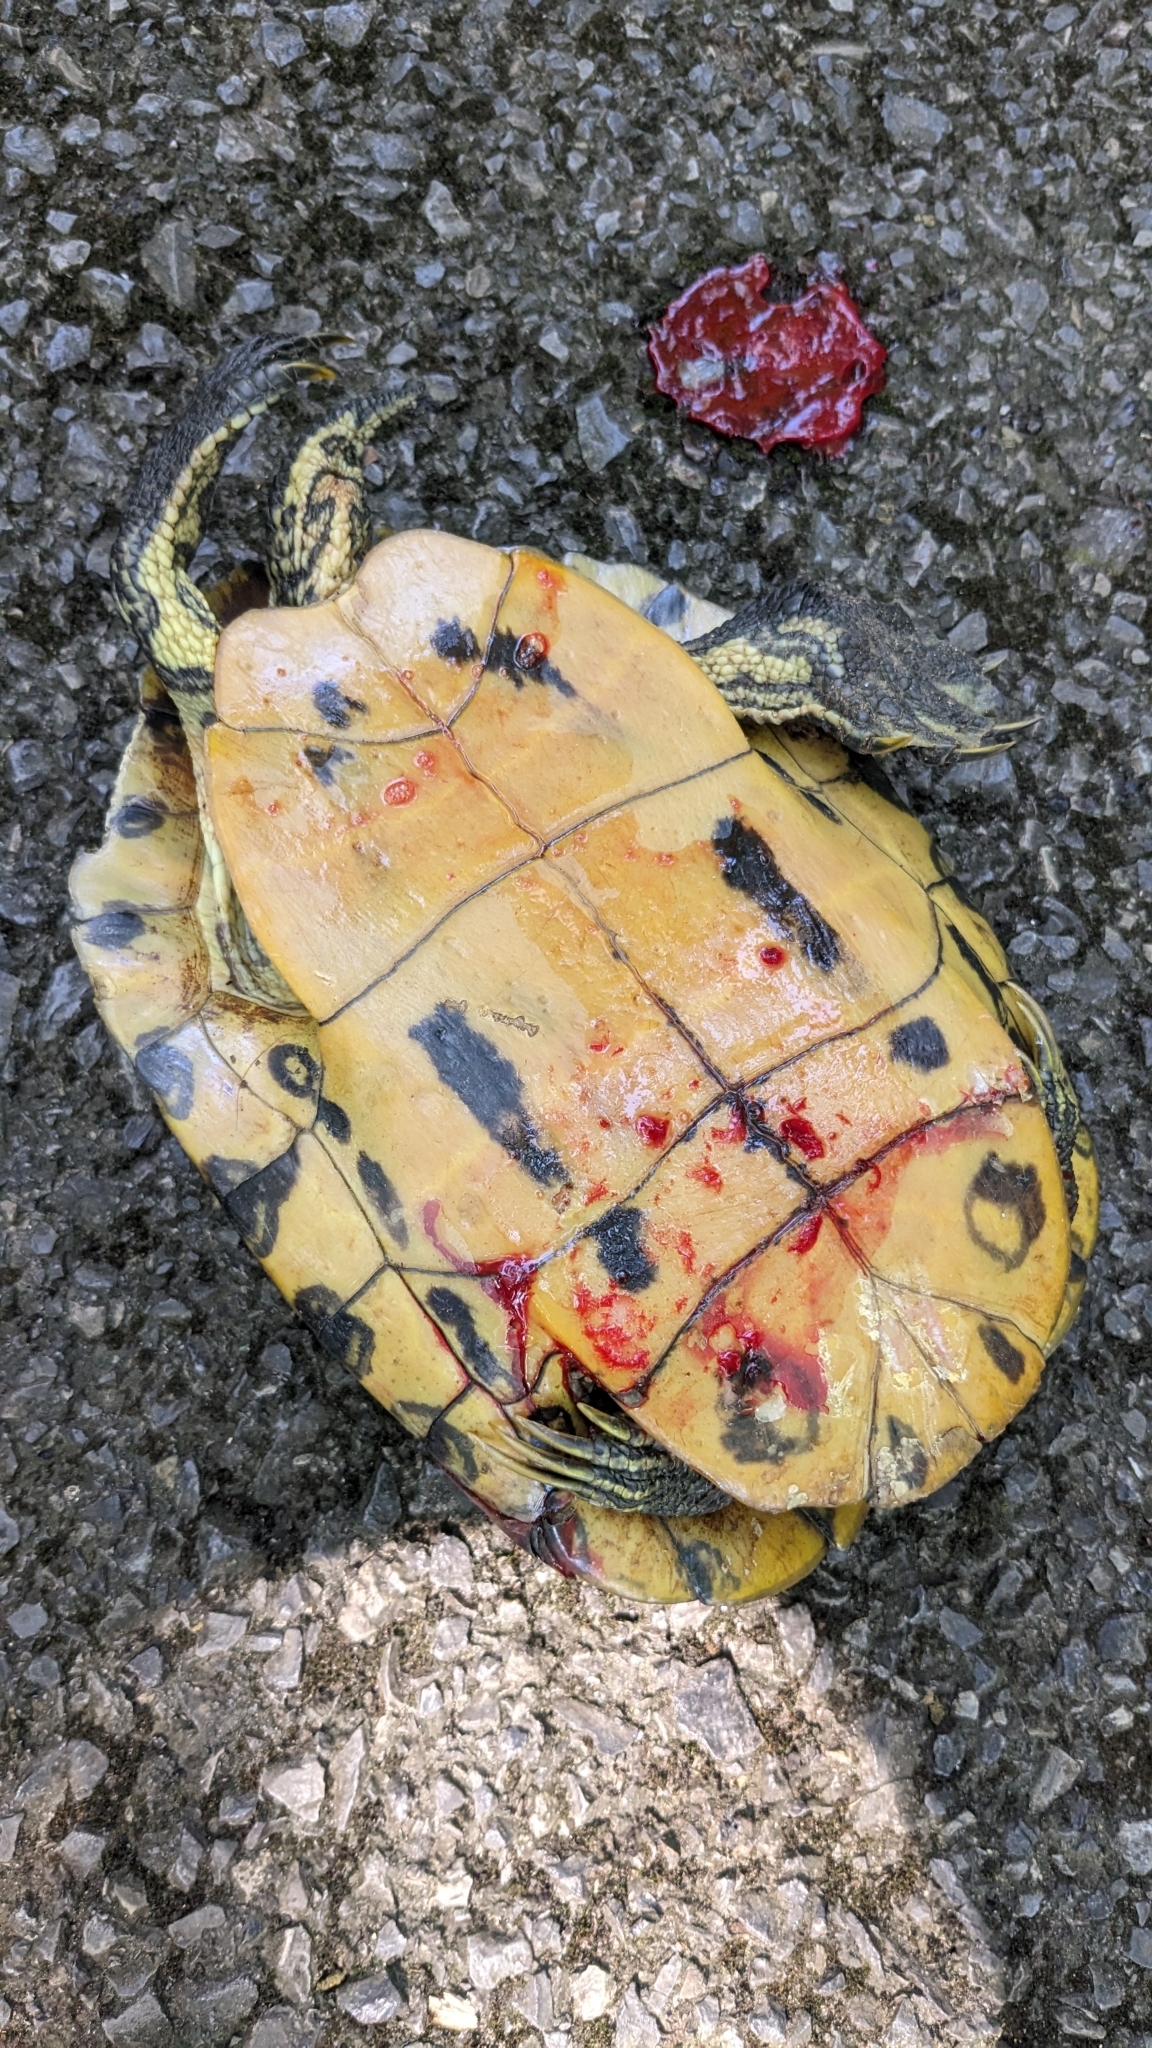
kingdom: Animalia
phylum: Chordata
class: Testudines
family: Emydidae
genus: Trachemys
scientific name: Trachemys scripta
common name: Slider
